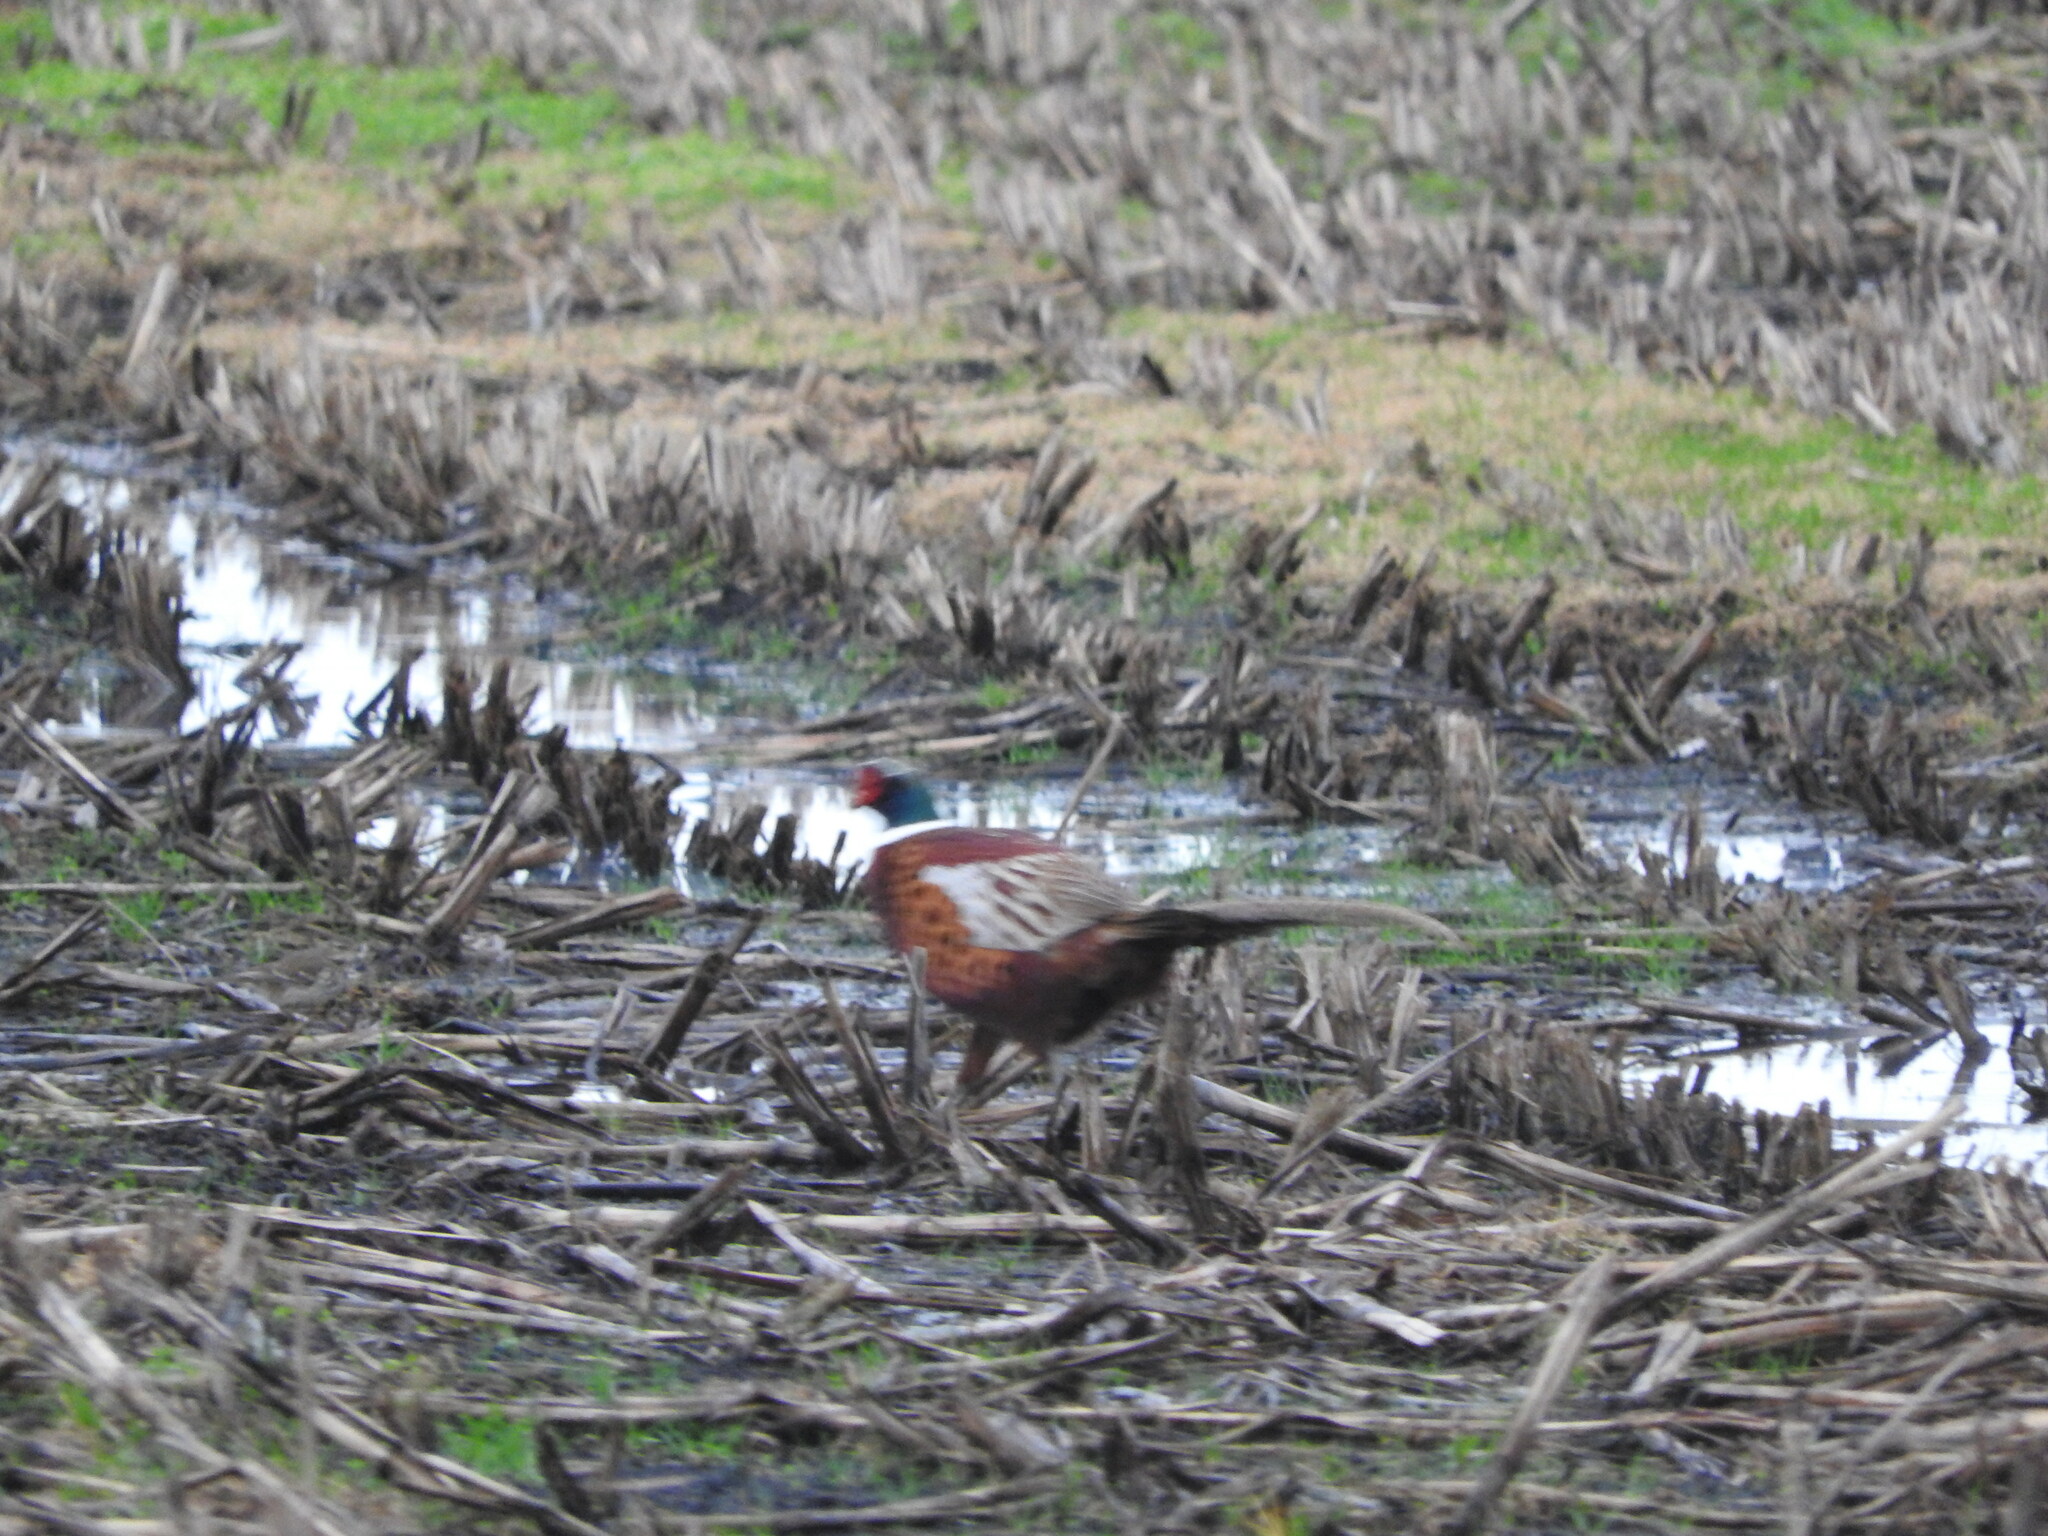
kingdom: Animalia
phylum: Chordata
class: Aves
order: Galliformes
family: Phasianidae
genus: Phasianus
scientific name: Phasianus colchicus
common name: Common pheasant
